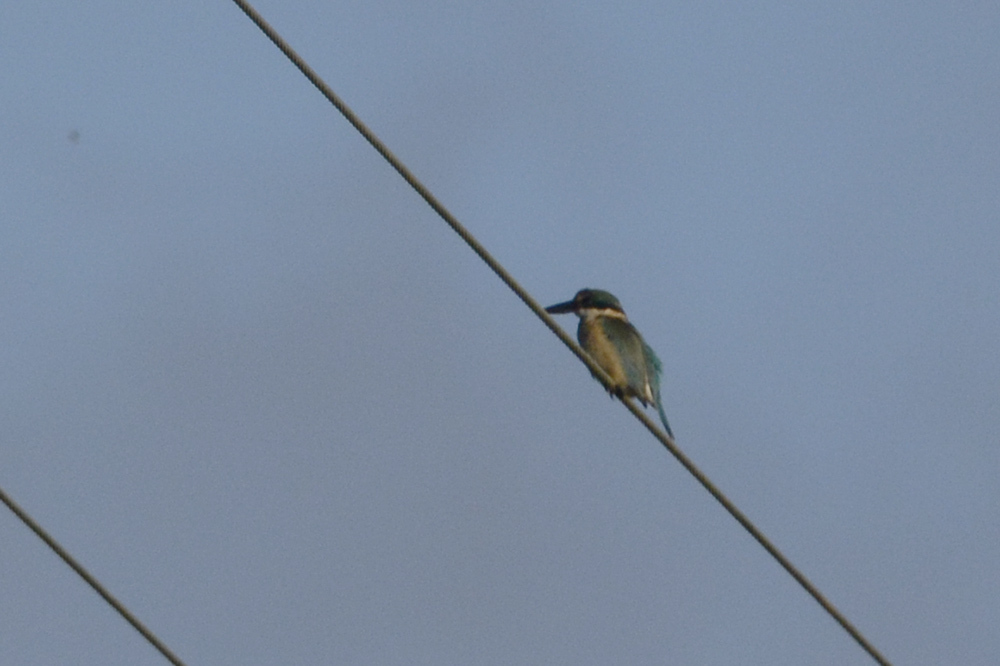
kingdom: Animalia
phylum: Chordata
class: Aves
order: Coraciiformes
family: Alcedinidae
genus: Todiramphus
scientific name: Todiramphus sanctus
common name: Sacred kingfisher
